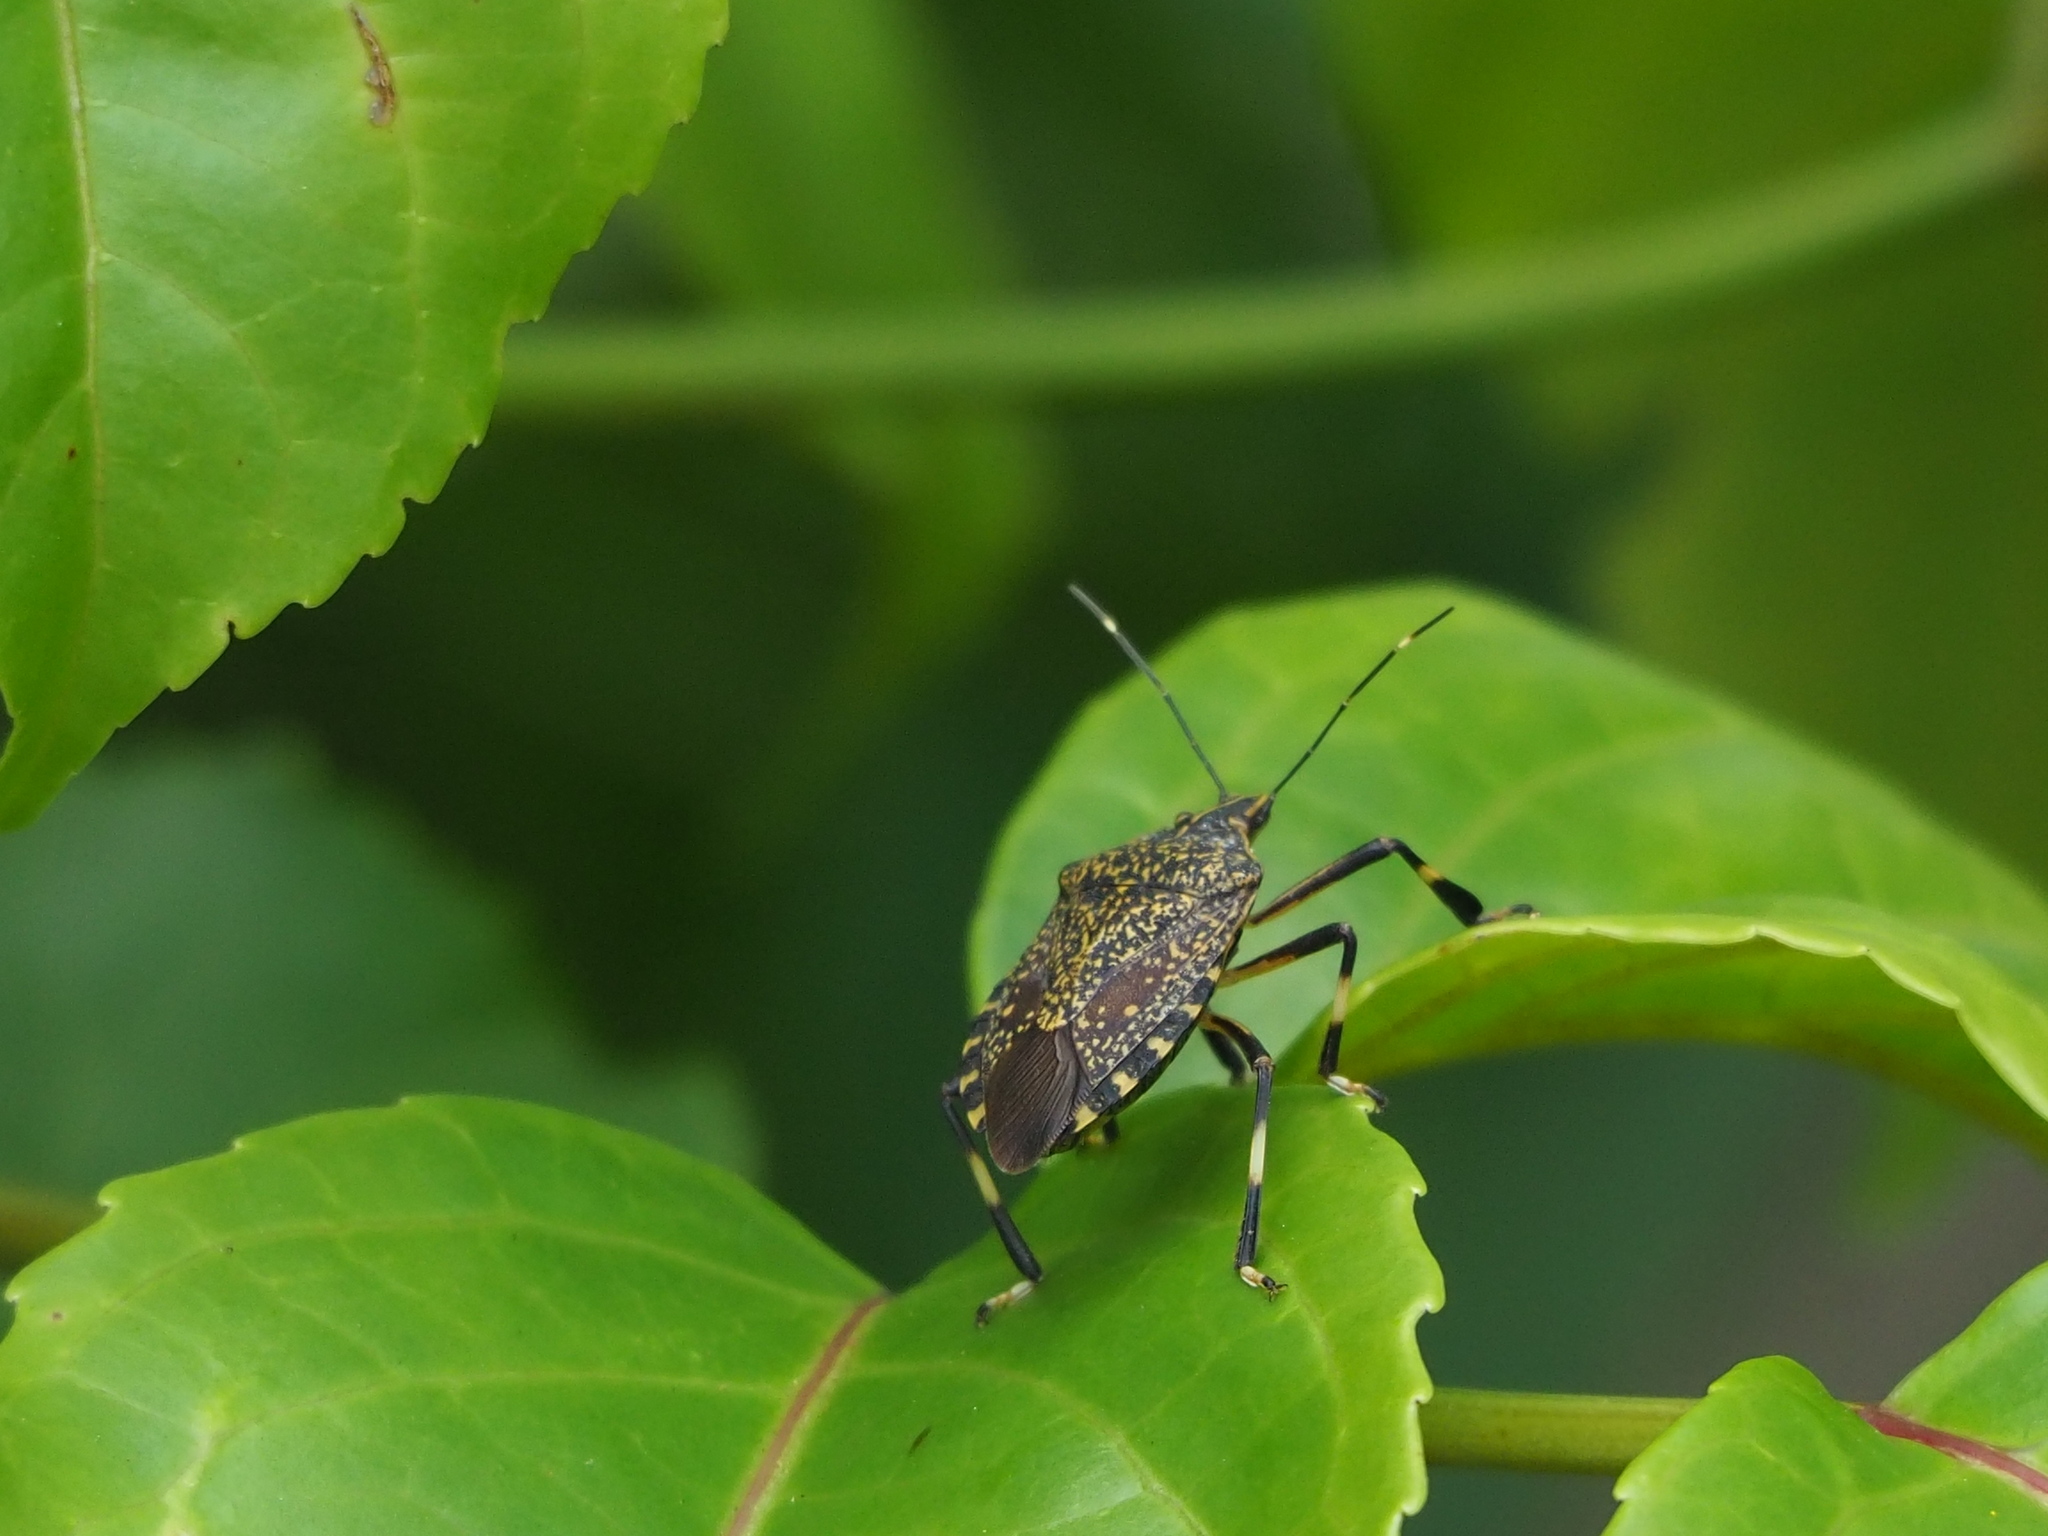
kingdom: Animalia
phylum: Arthropoda
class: Insecta
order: Hemiptera
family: Pentatomidae
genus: Erthesina
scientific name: Erthesina fullo
